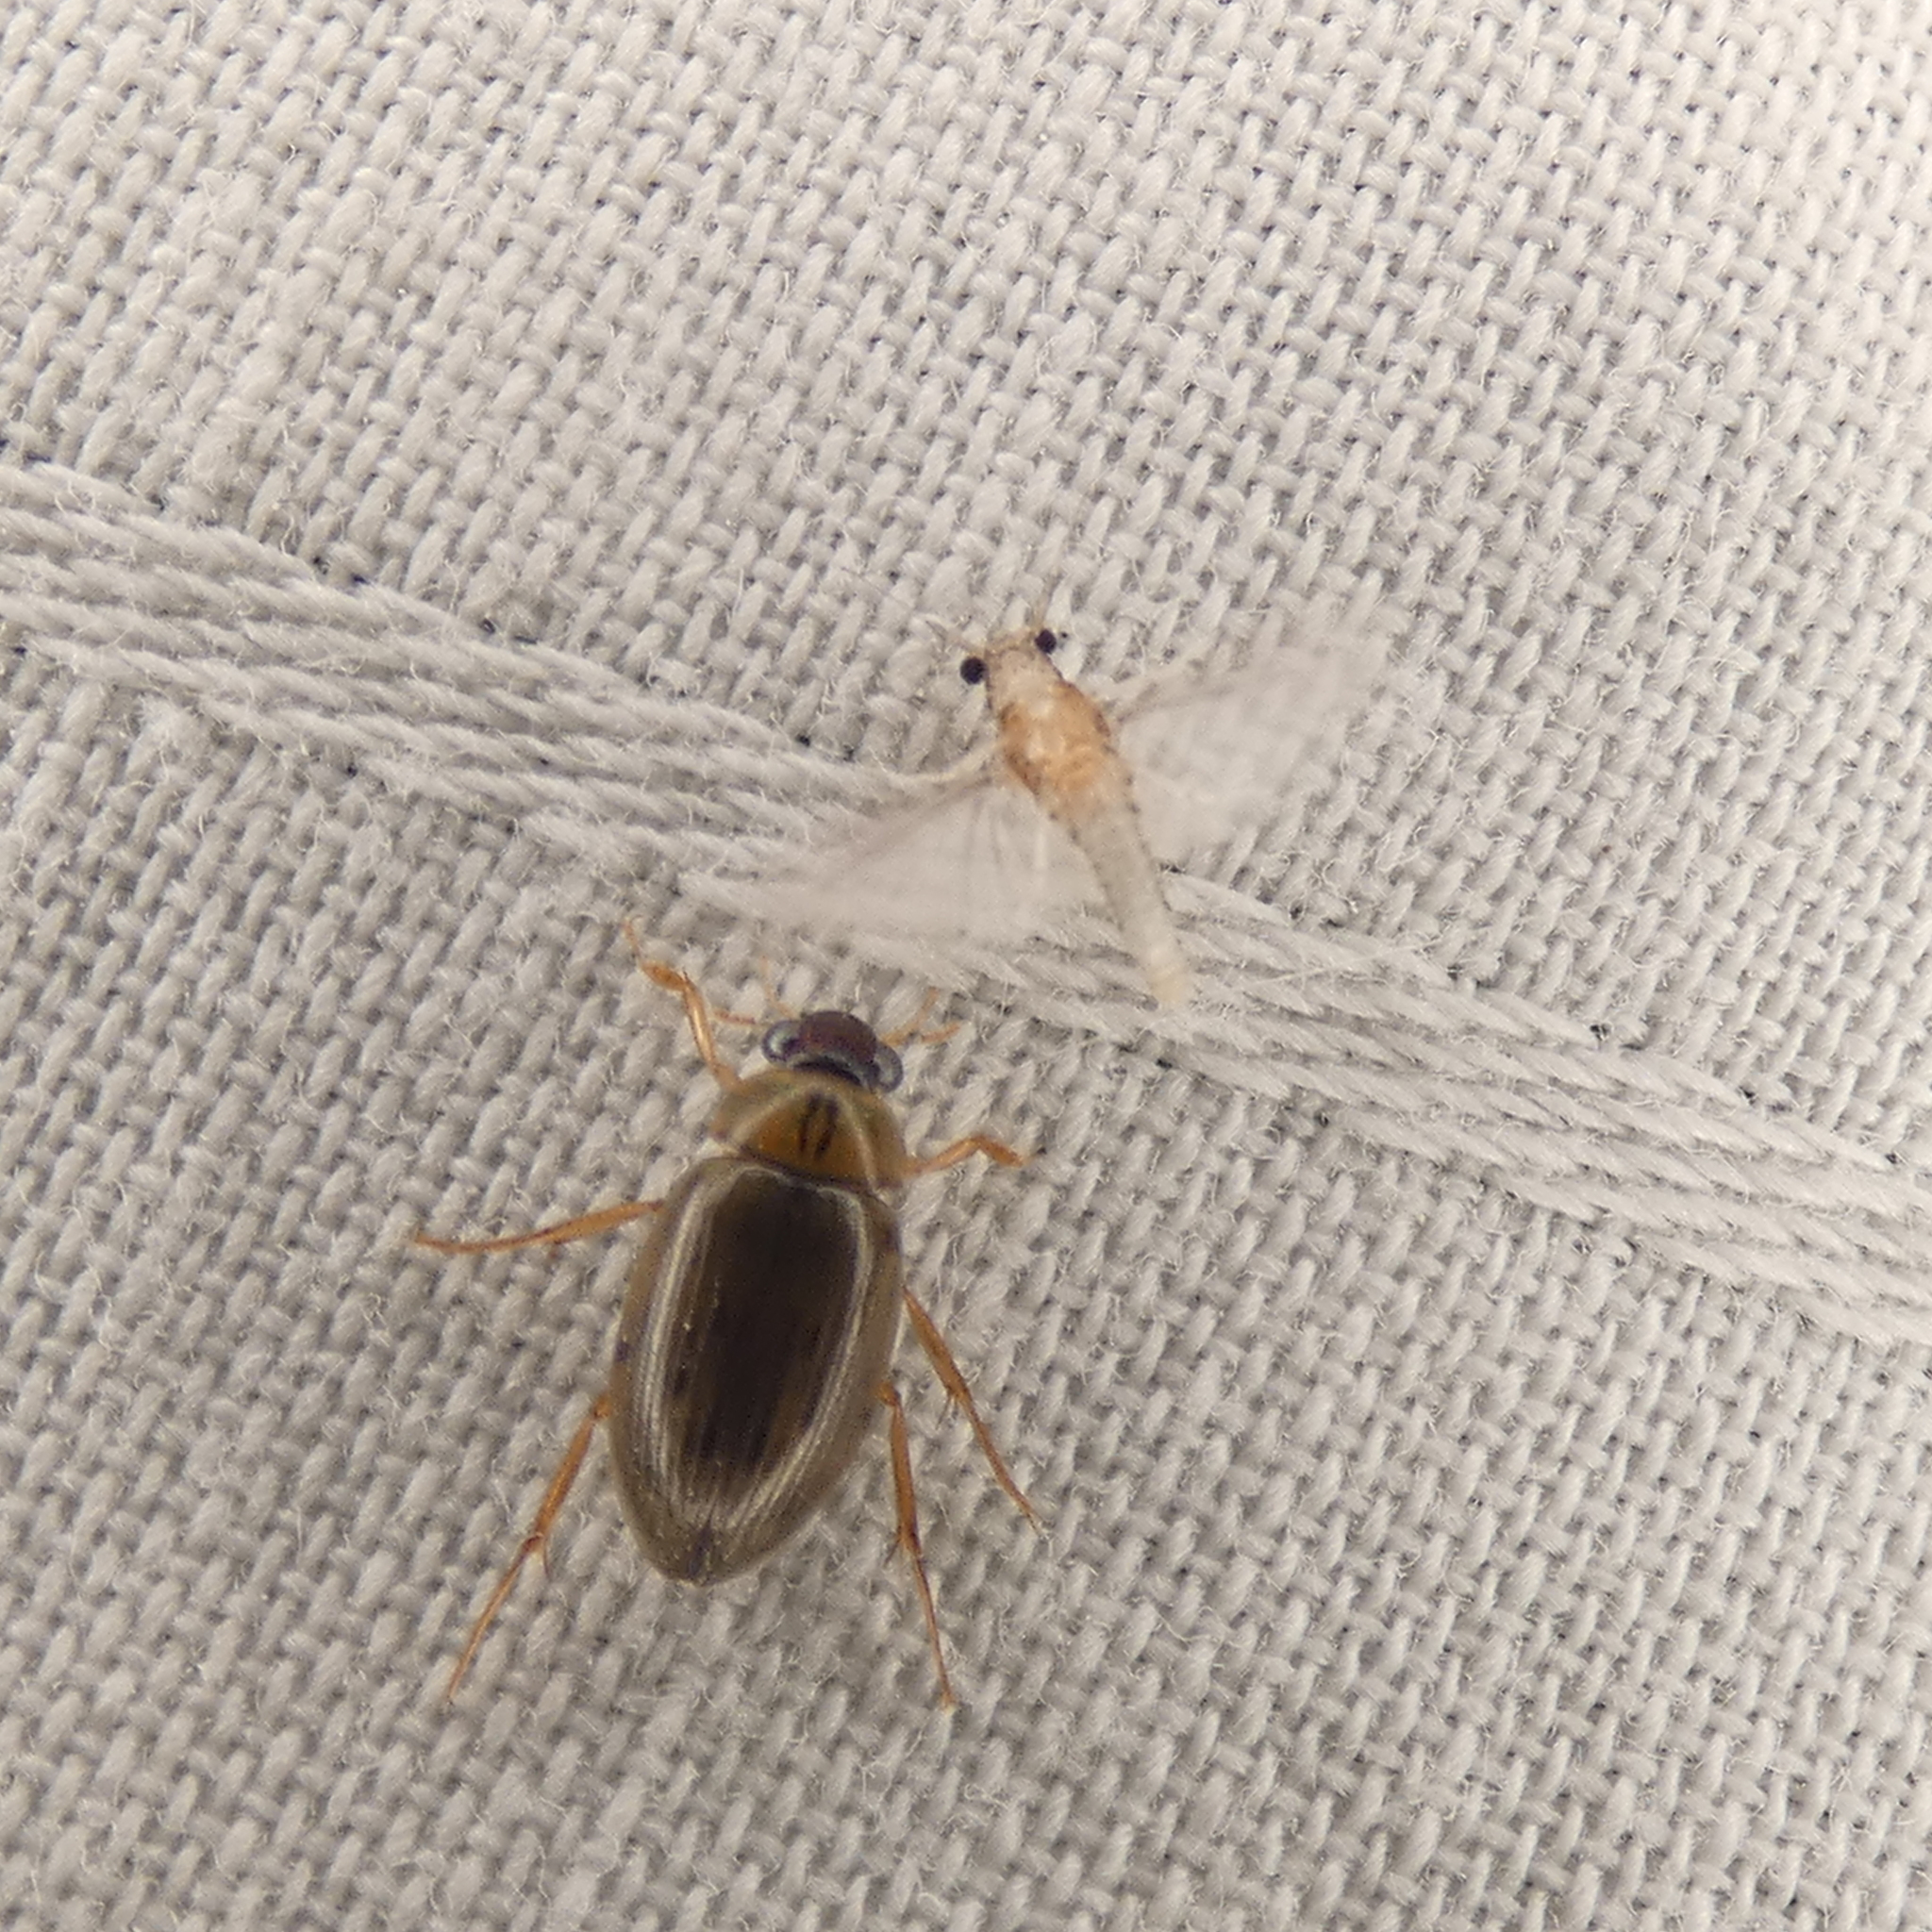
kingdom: Animalia
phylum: Arthropoda
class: Insecta
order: Coleoptera
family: Hydrophilidae
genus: Berosus
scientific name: Berosus
